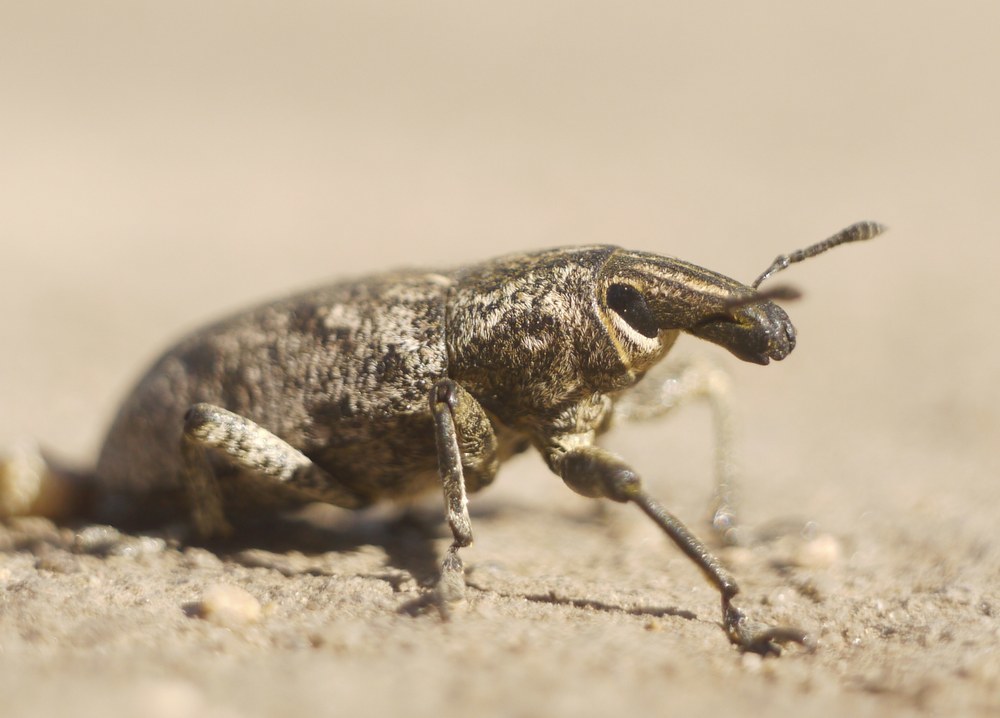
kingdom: Animalia
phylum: Arthropoda
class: Insecta
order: Coleoptera
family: Curculionidae
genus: Cleonis
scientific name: Cleonis pigra
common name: Large thistle weevil
